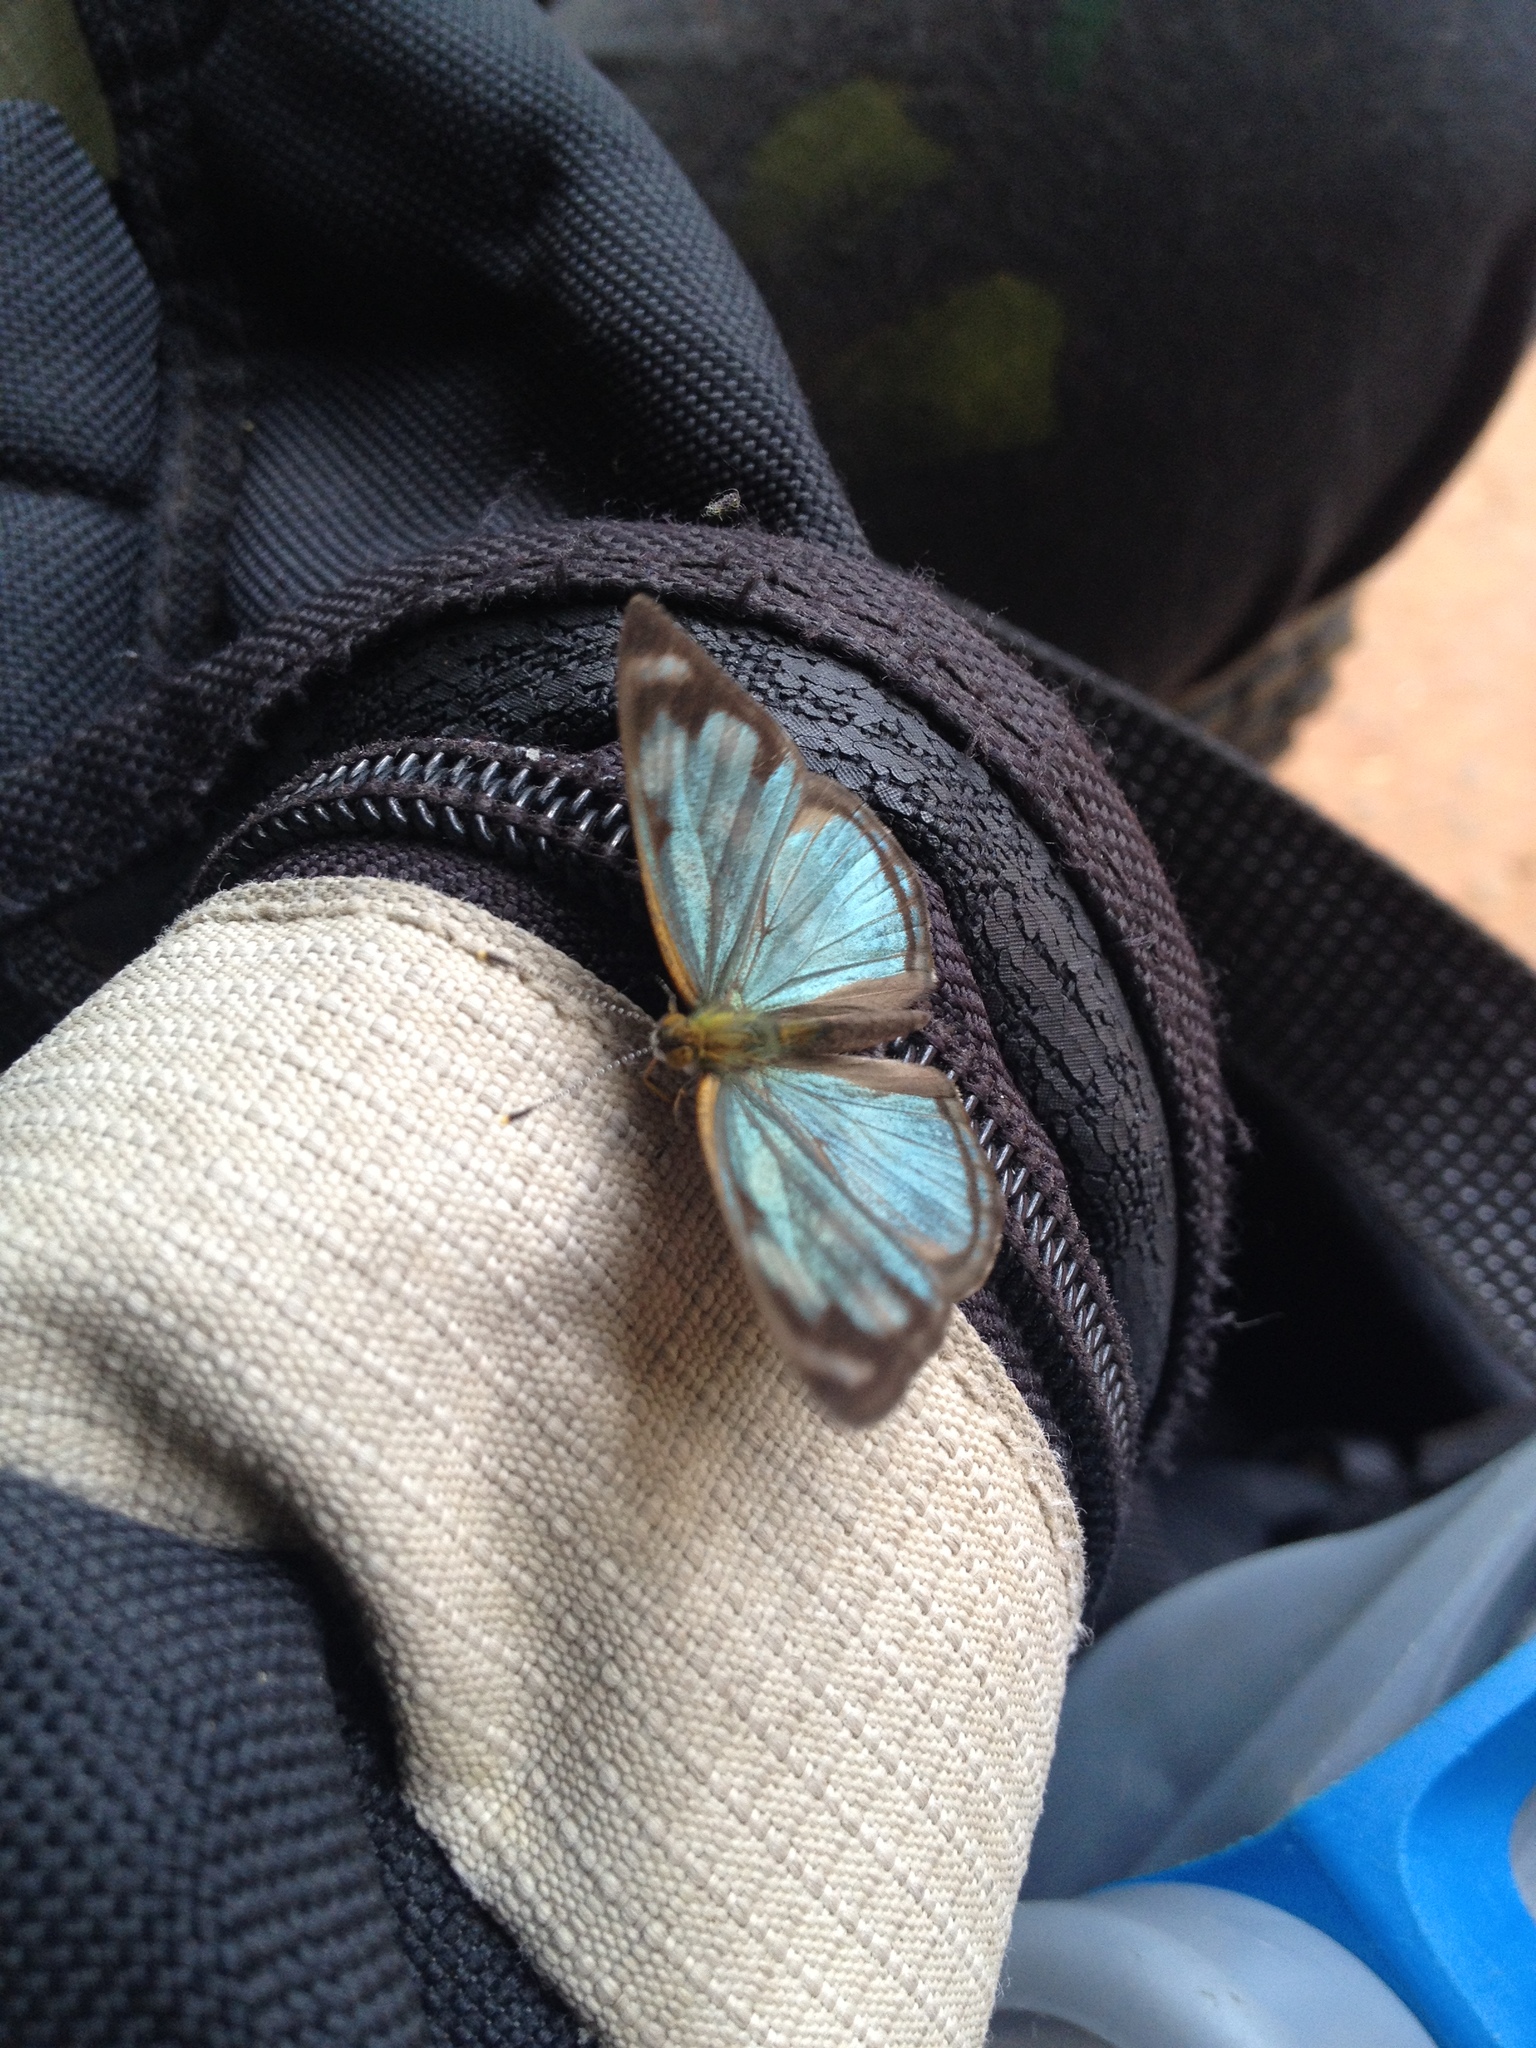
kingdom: Animalia
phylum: Arthropoda
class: Insecta
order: Lepidoptera
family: Nymphalidae
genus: Dynamine
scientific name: Dynamine artemisia
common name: Small-eyed sailor
